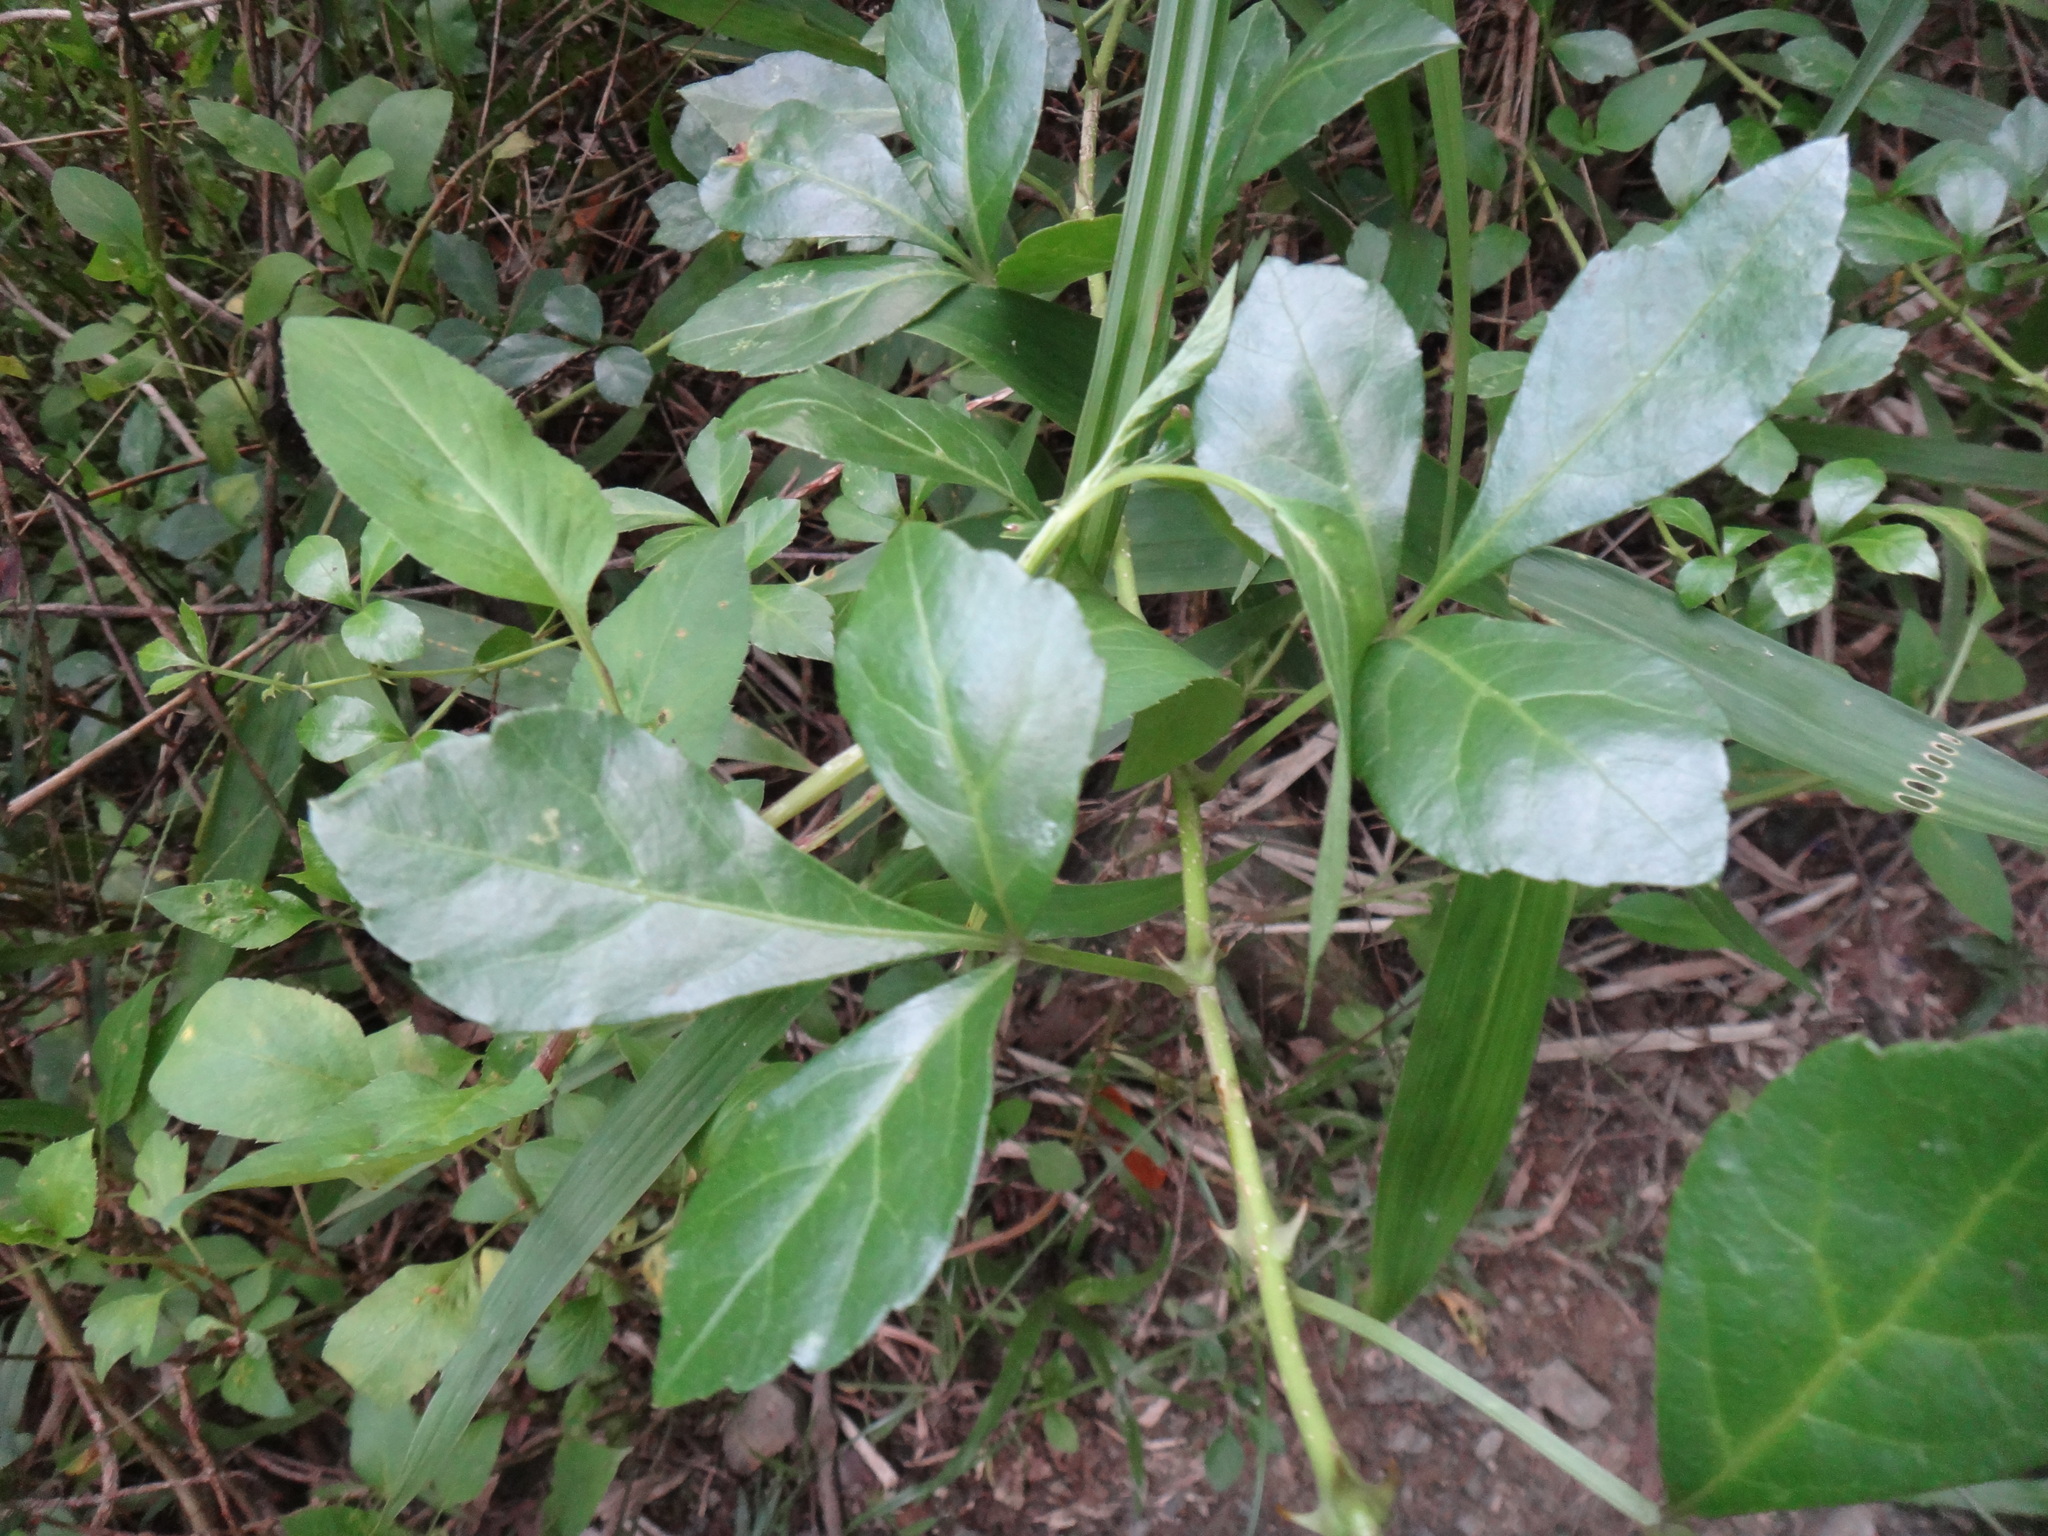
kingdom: Plantae
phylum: Tracheophyta
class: Magnoliopsida
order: Apiales
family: Araliaceae
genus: Eleutherococcus
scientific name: Eleutherococcus trifoliatus
